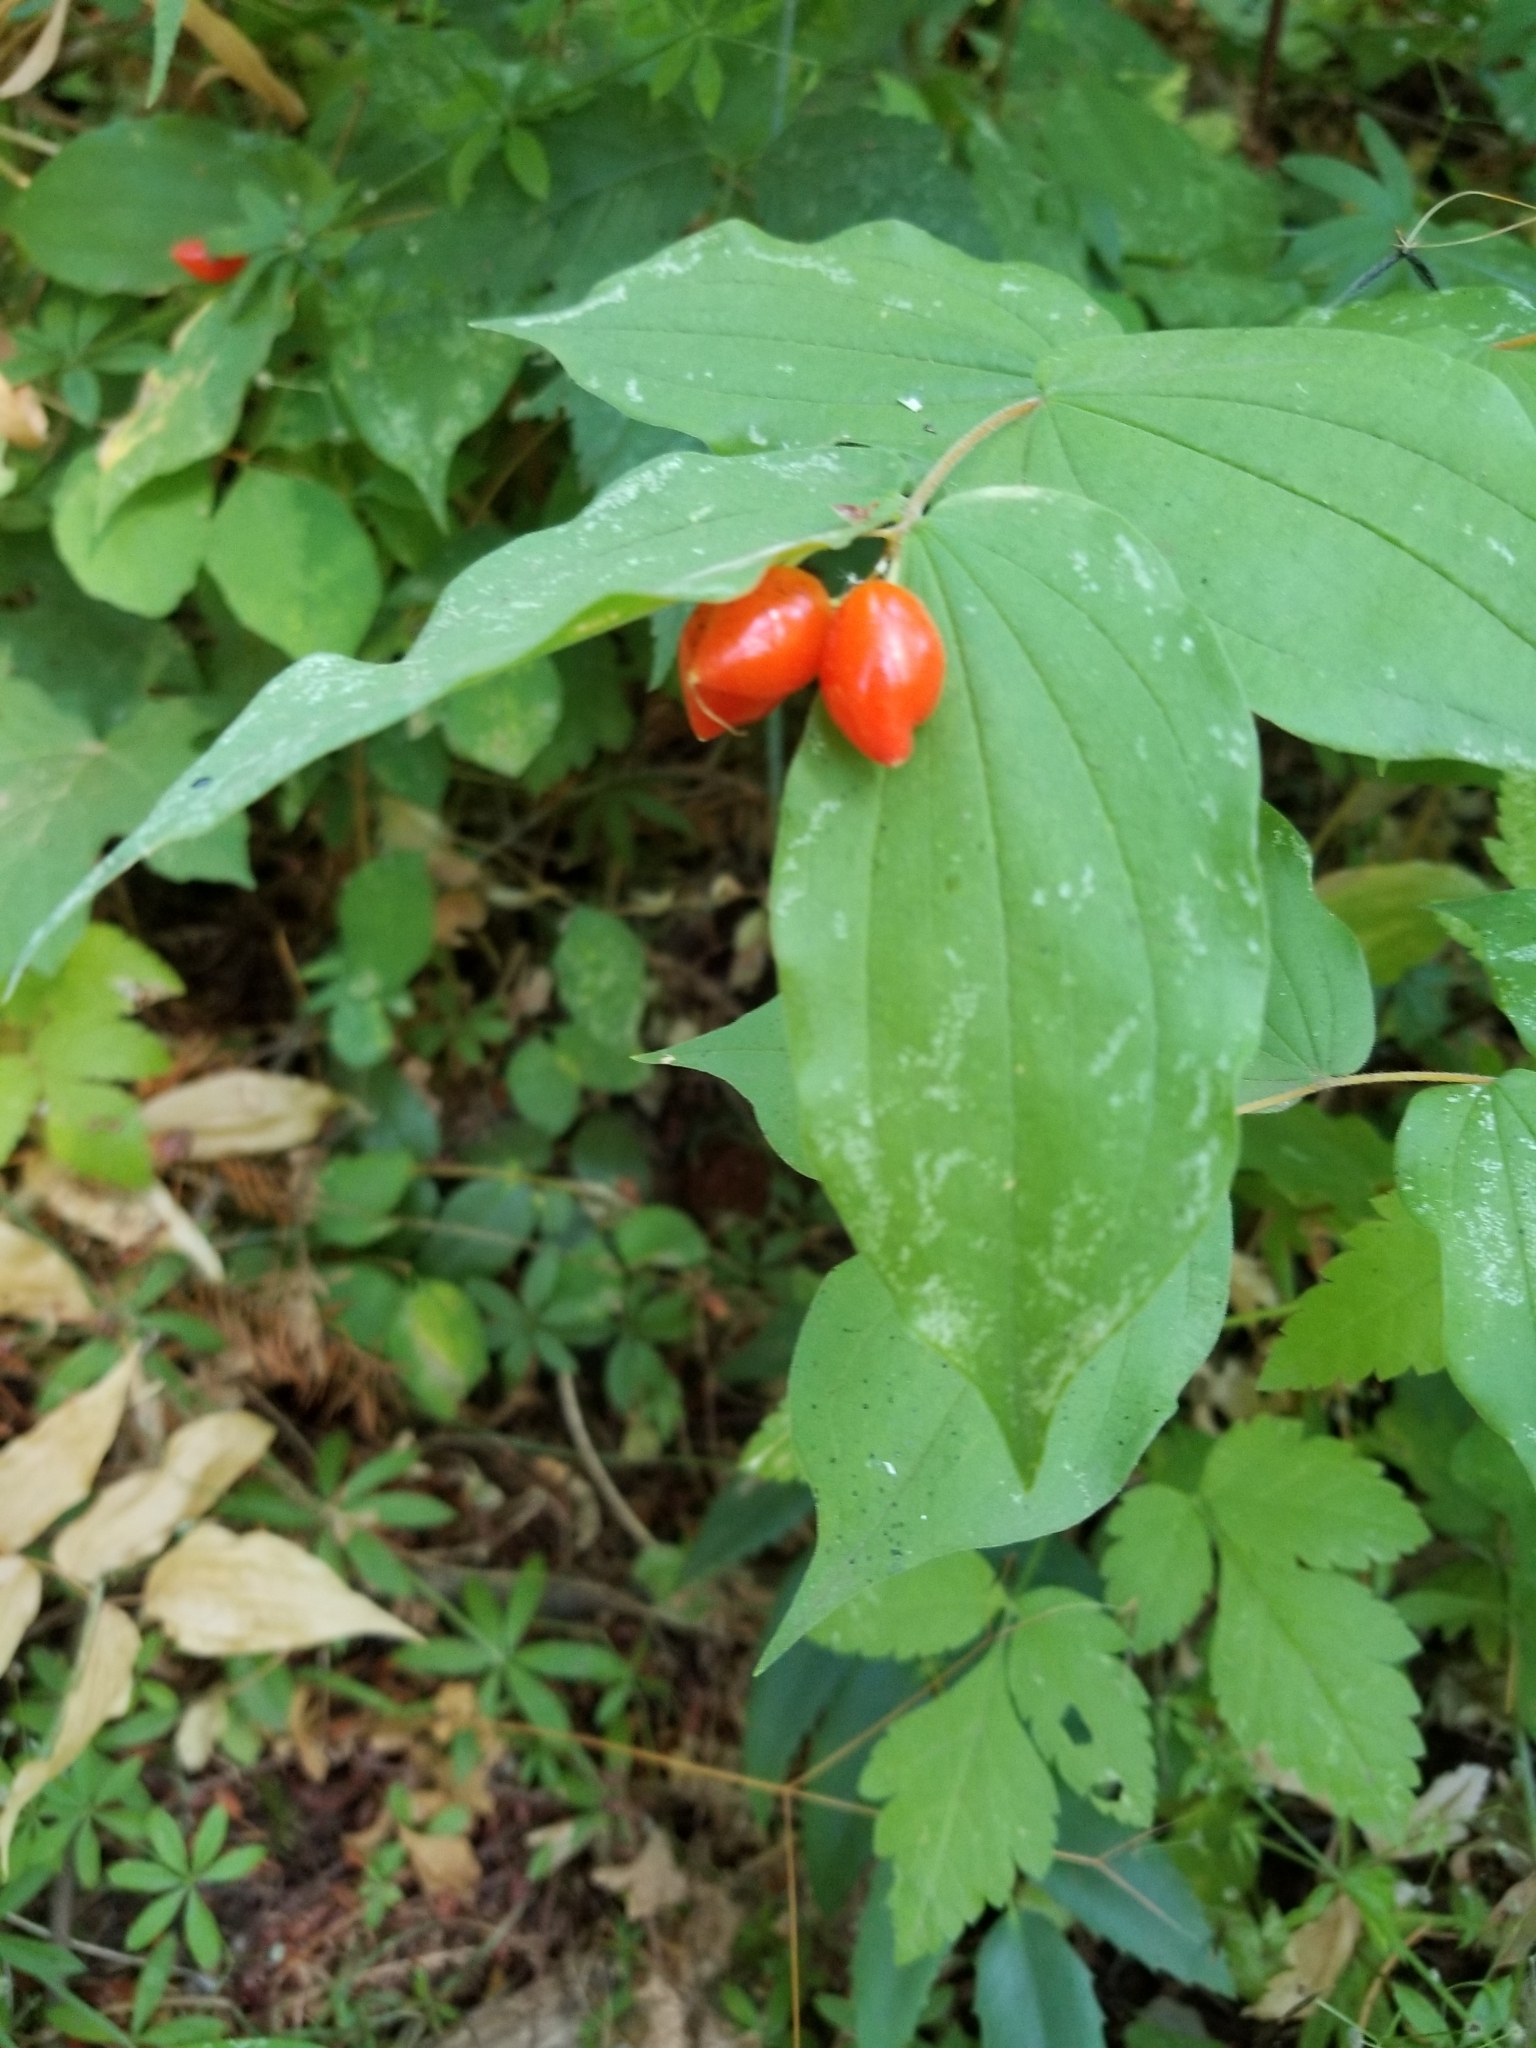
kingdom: Plantae
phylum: Tracheophyta
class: Liliopsida
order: Liliales
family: Liliaceae
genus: Prosartes
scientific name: Prosartes hookeri
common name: Fairy-bells
